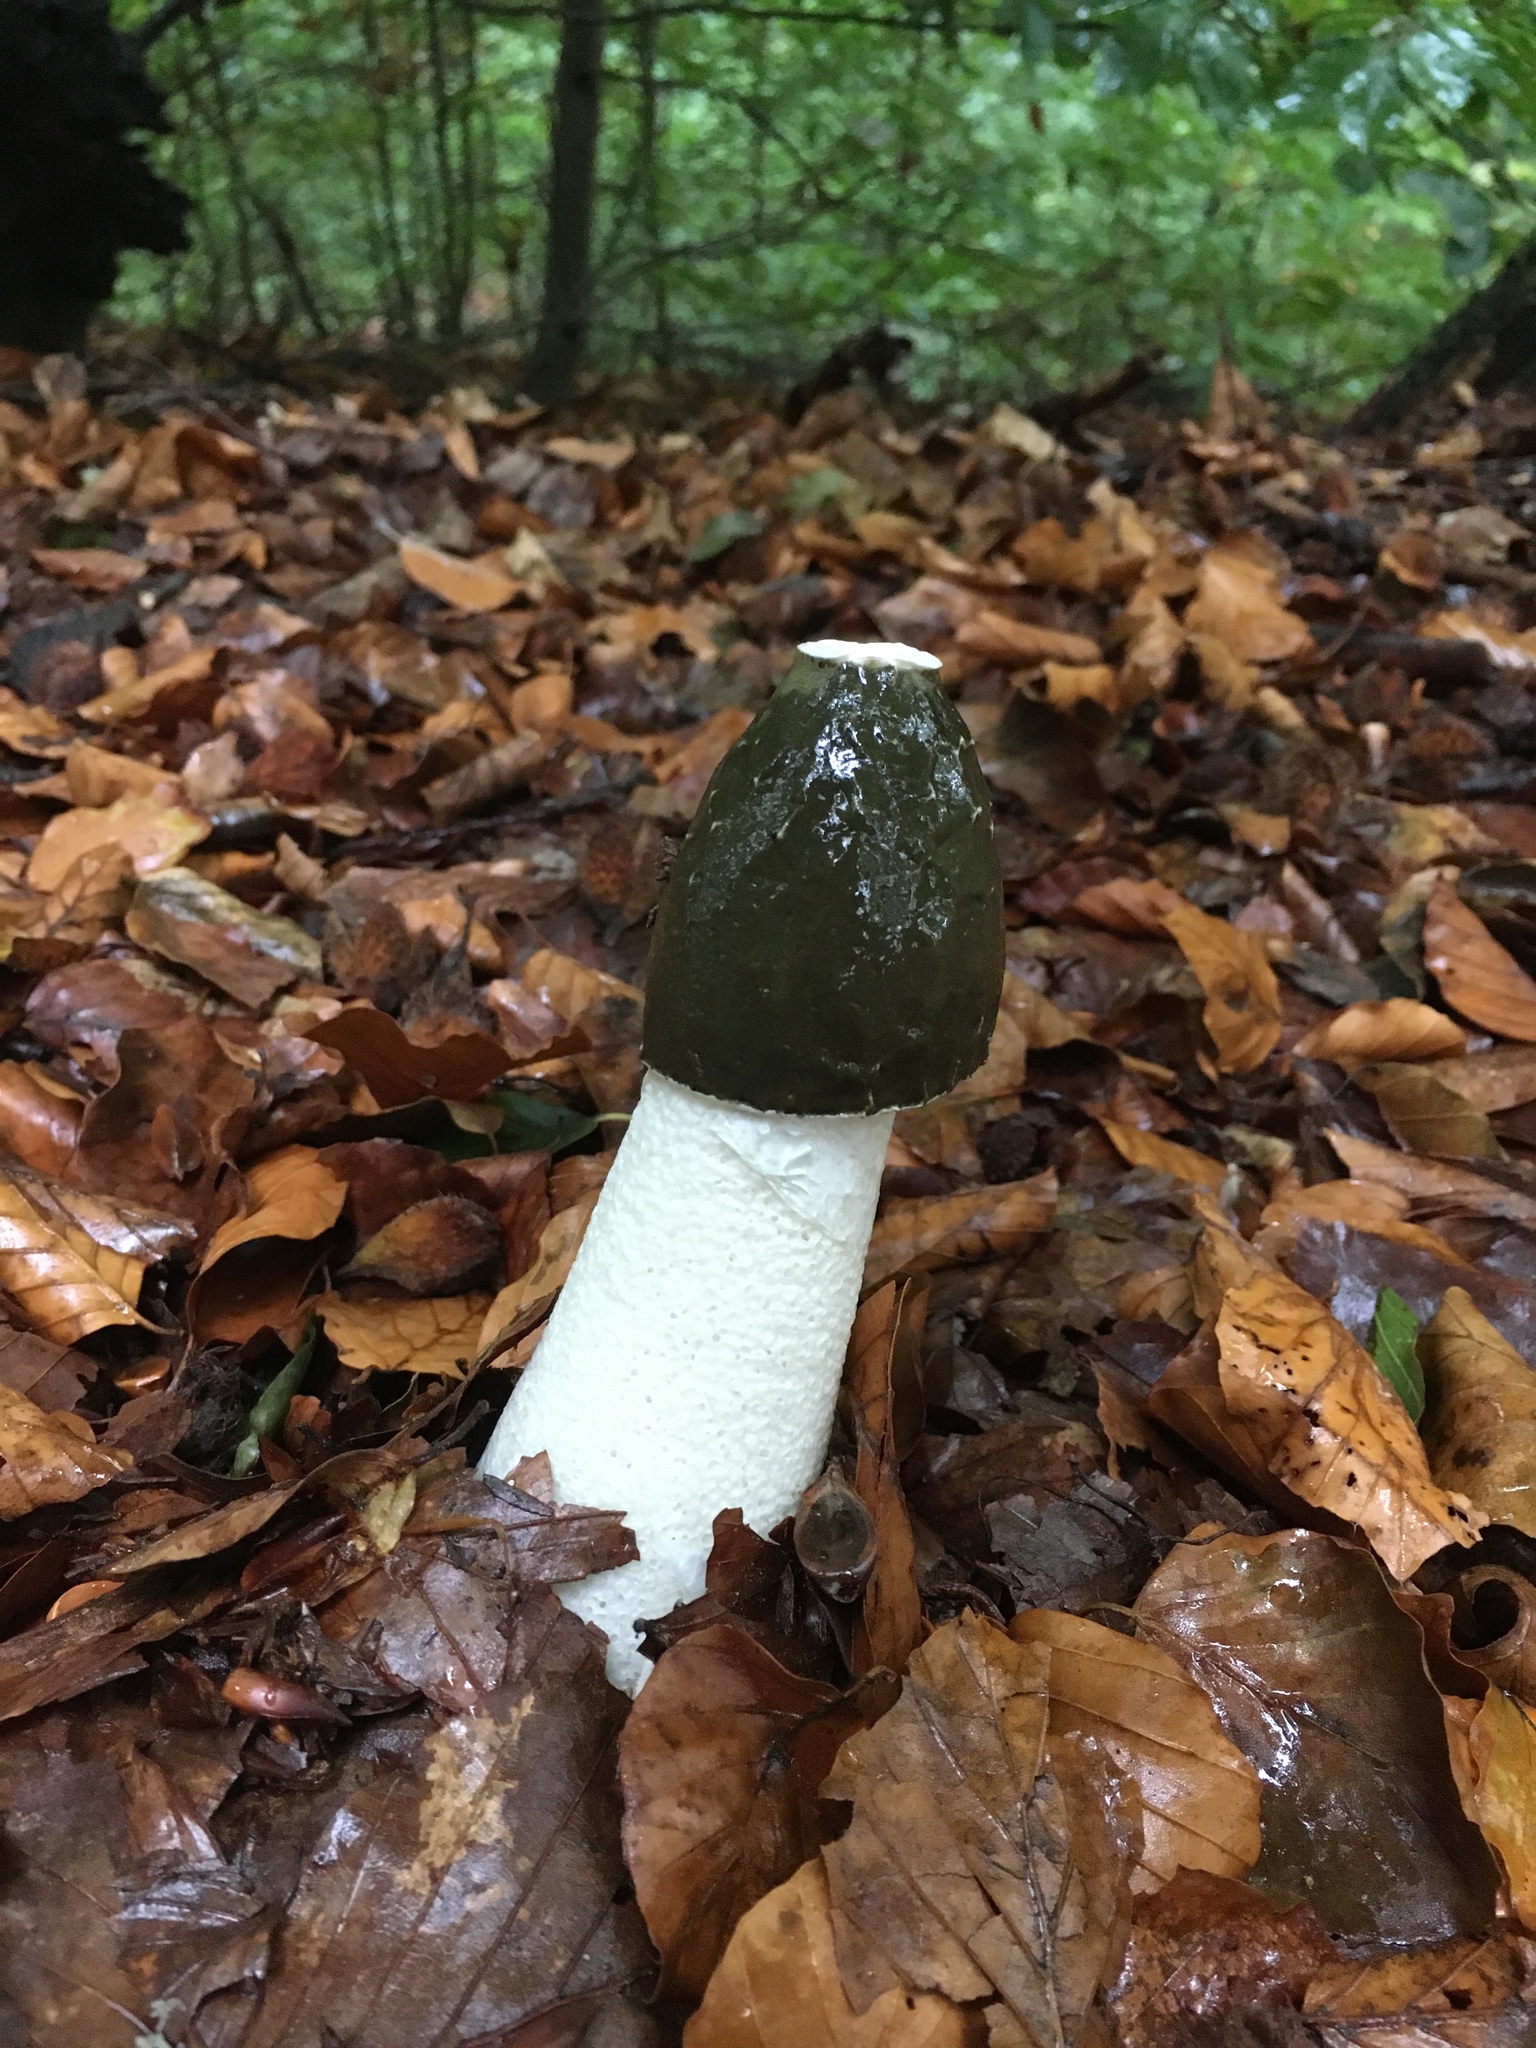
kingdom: Fungi
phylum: Basidiomycota
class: Agaricomycetes
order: Phallales
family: Phallaceae
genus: Phallus
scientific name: Phallus impudicus
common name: Common stinkhorn
